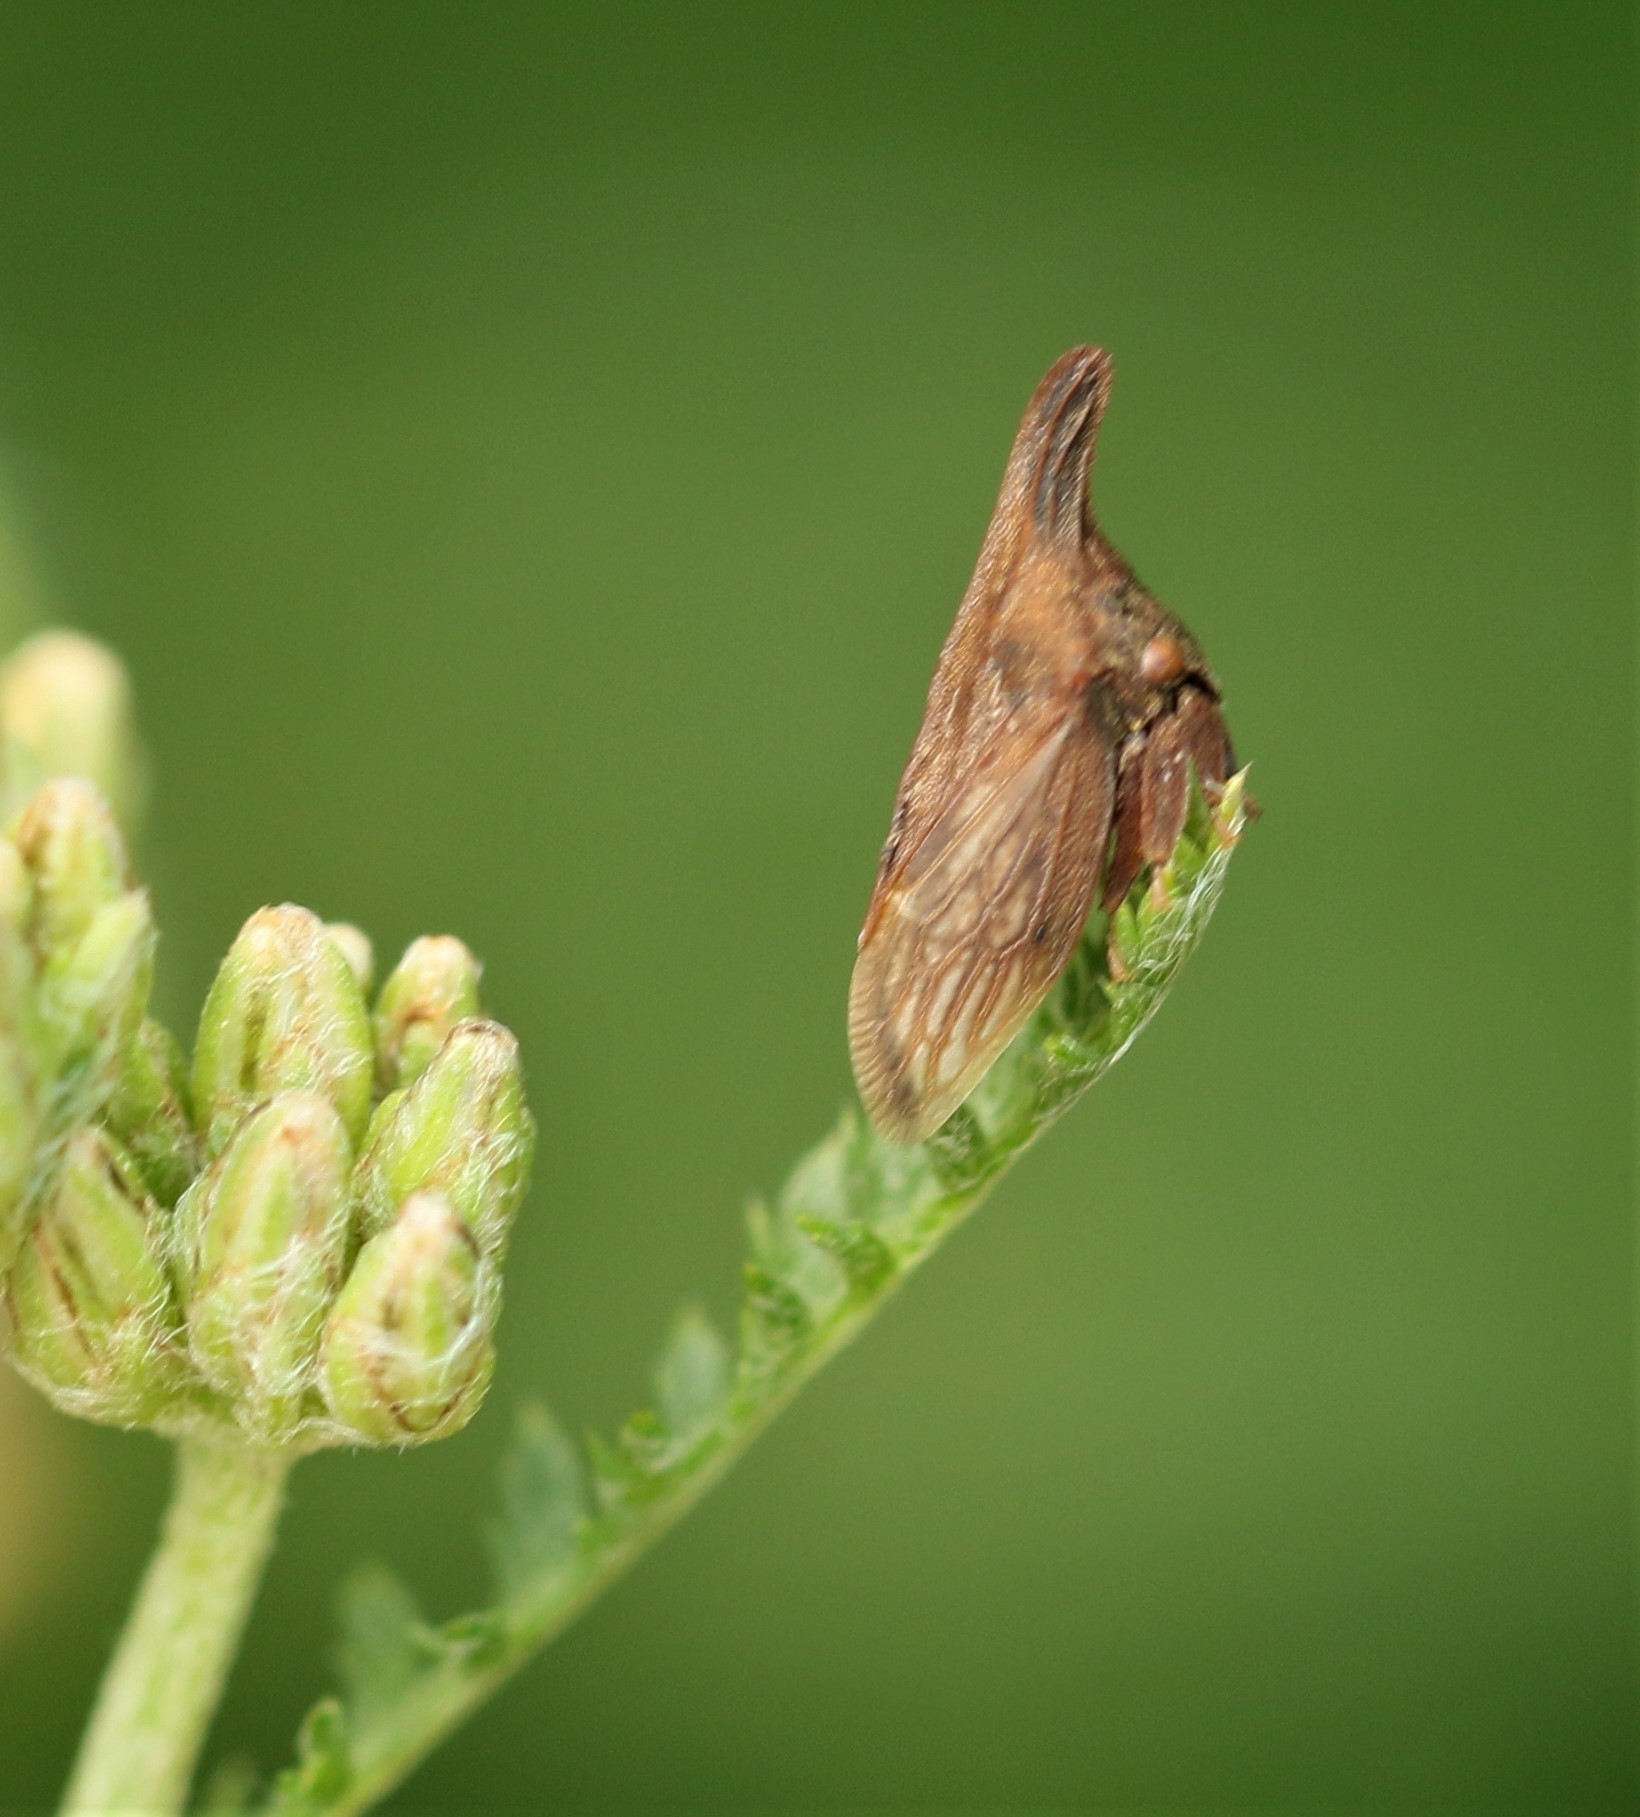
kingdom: Animalia
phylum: Arthropoda
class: Insecta
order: Hemiptera
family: Membracidae
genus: Enchenopa
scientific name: Enchenopa latipes
